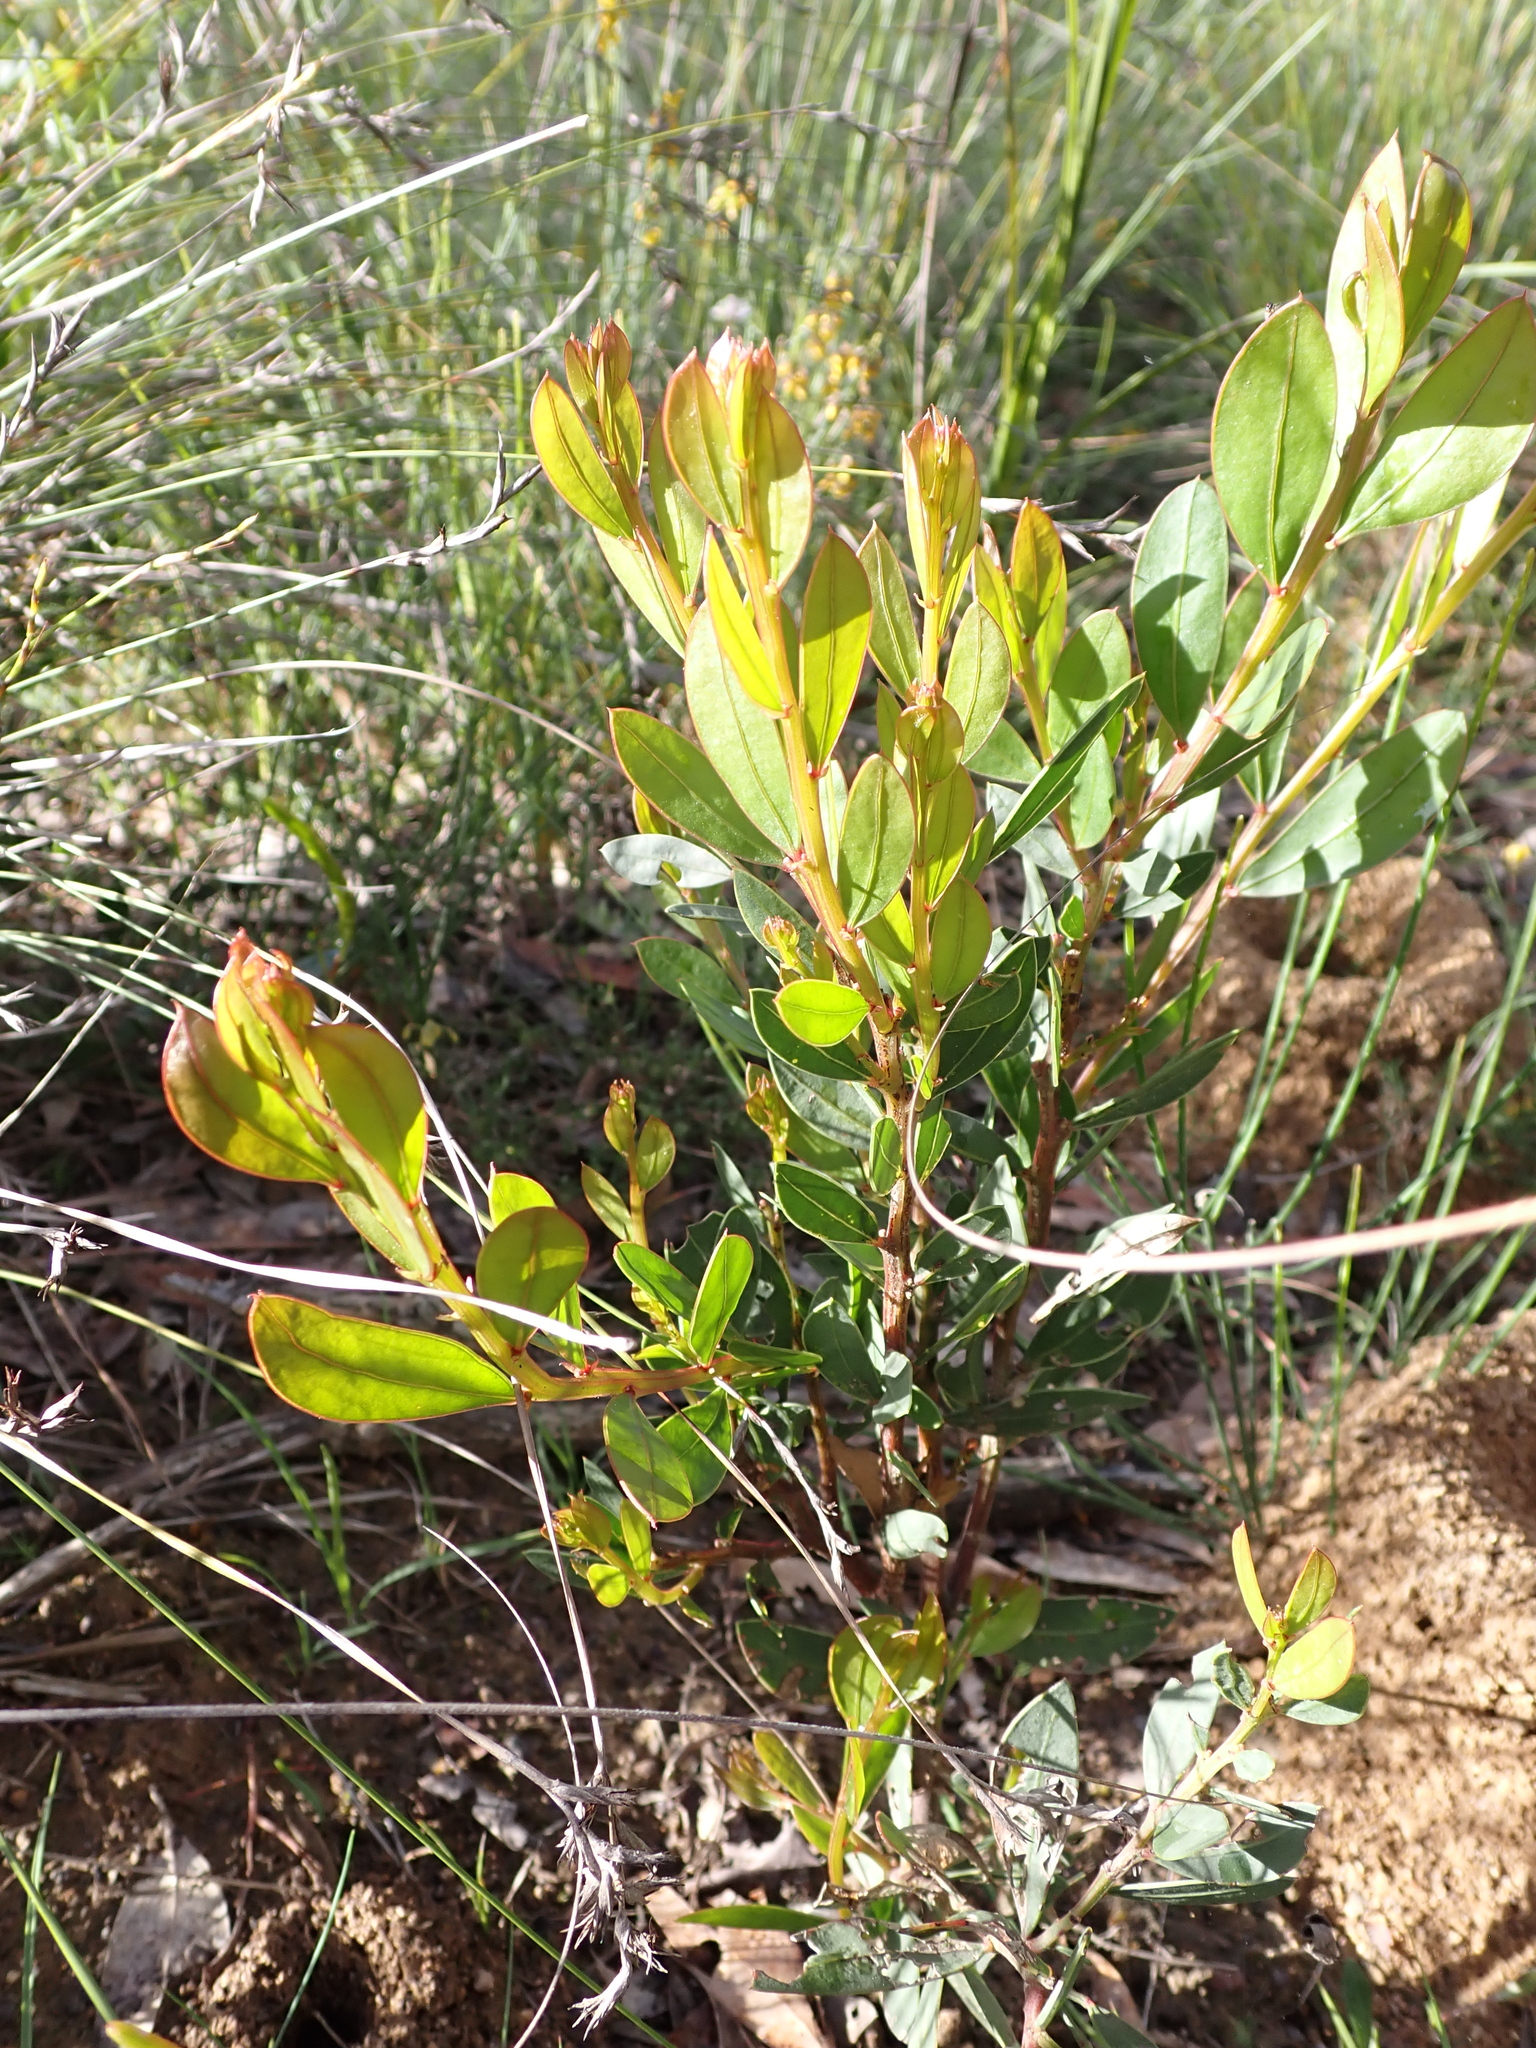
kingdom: Plantae
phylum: Tracheophyta
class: Magnoliopsida
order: Fabales
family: Fabaceae
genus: Acacia
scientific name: Acacia myrtifolia
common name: Myrtle wattle
